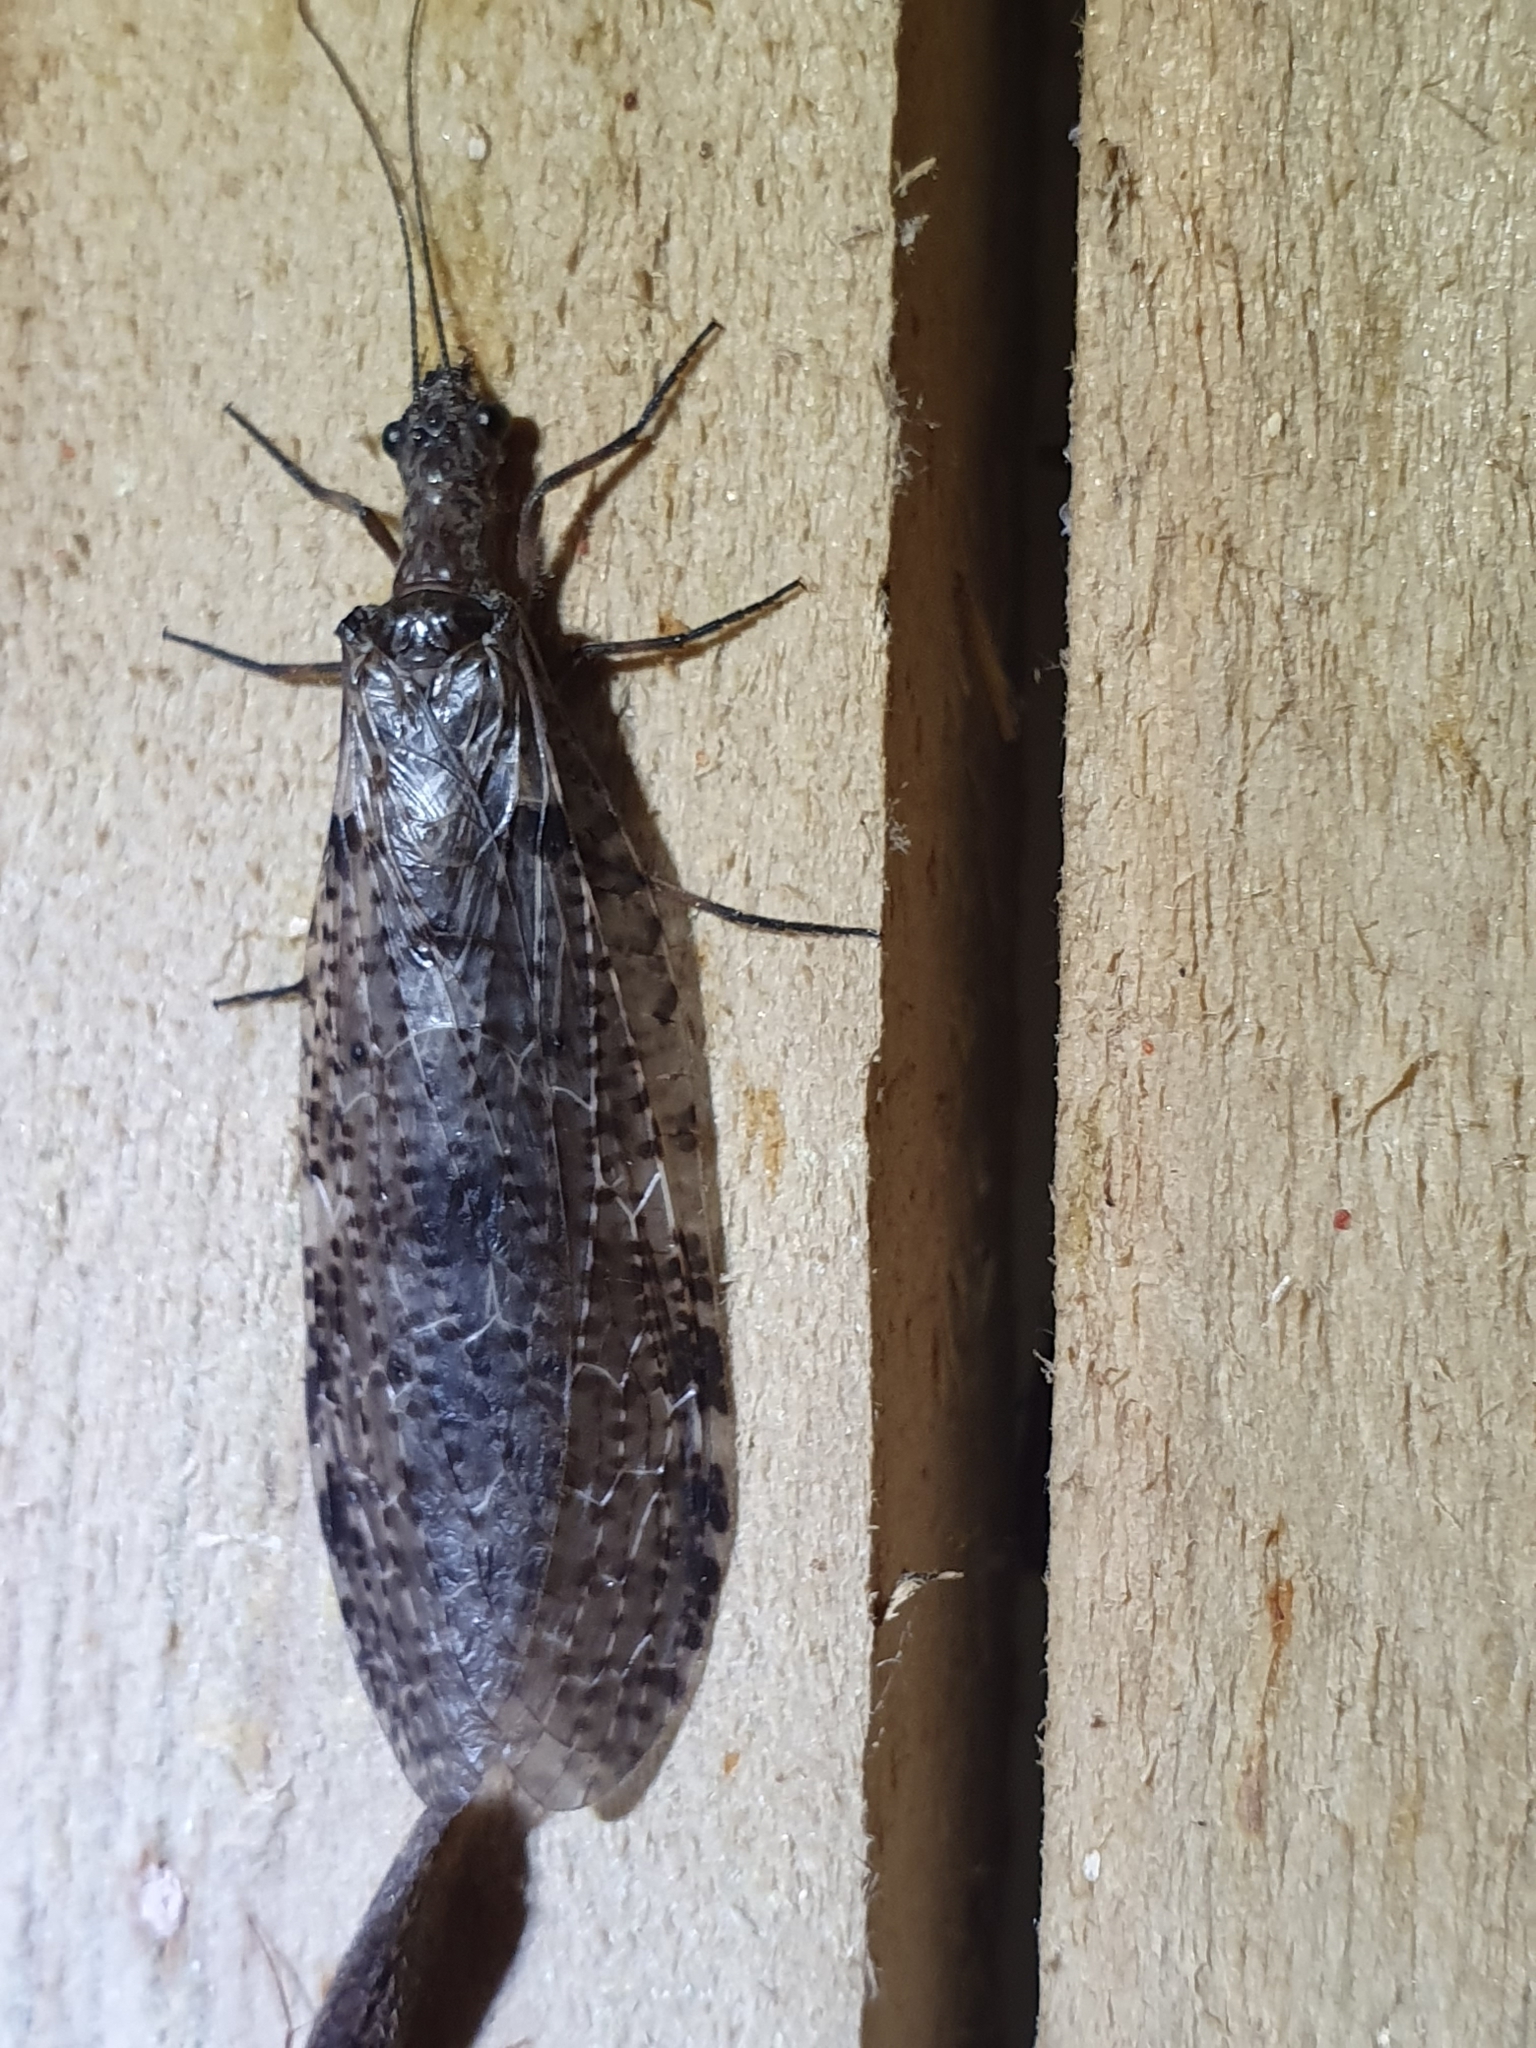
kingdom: Animalia
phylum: Arthropoda
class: Insecta
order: Megaloptera
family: Corydalidae
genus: Archichauliodes
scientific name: Archichauliodes diversus
